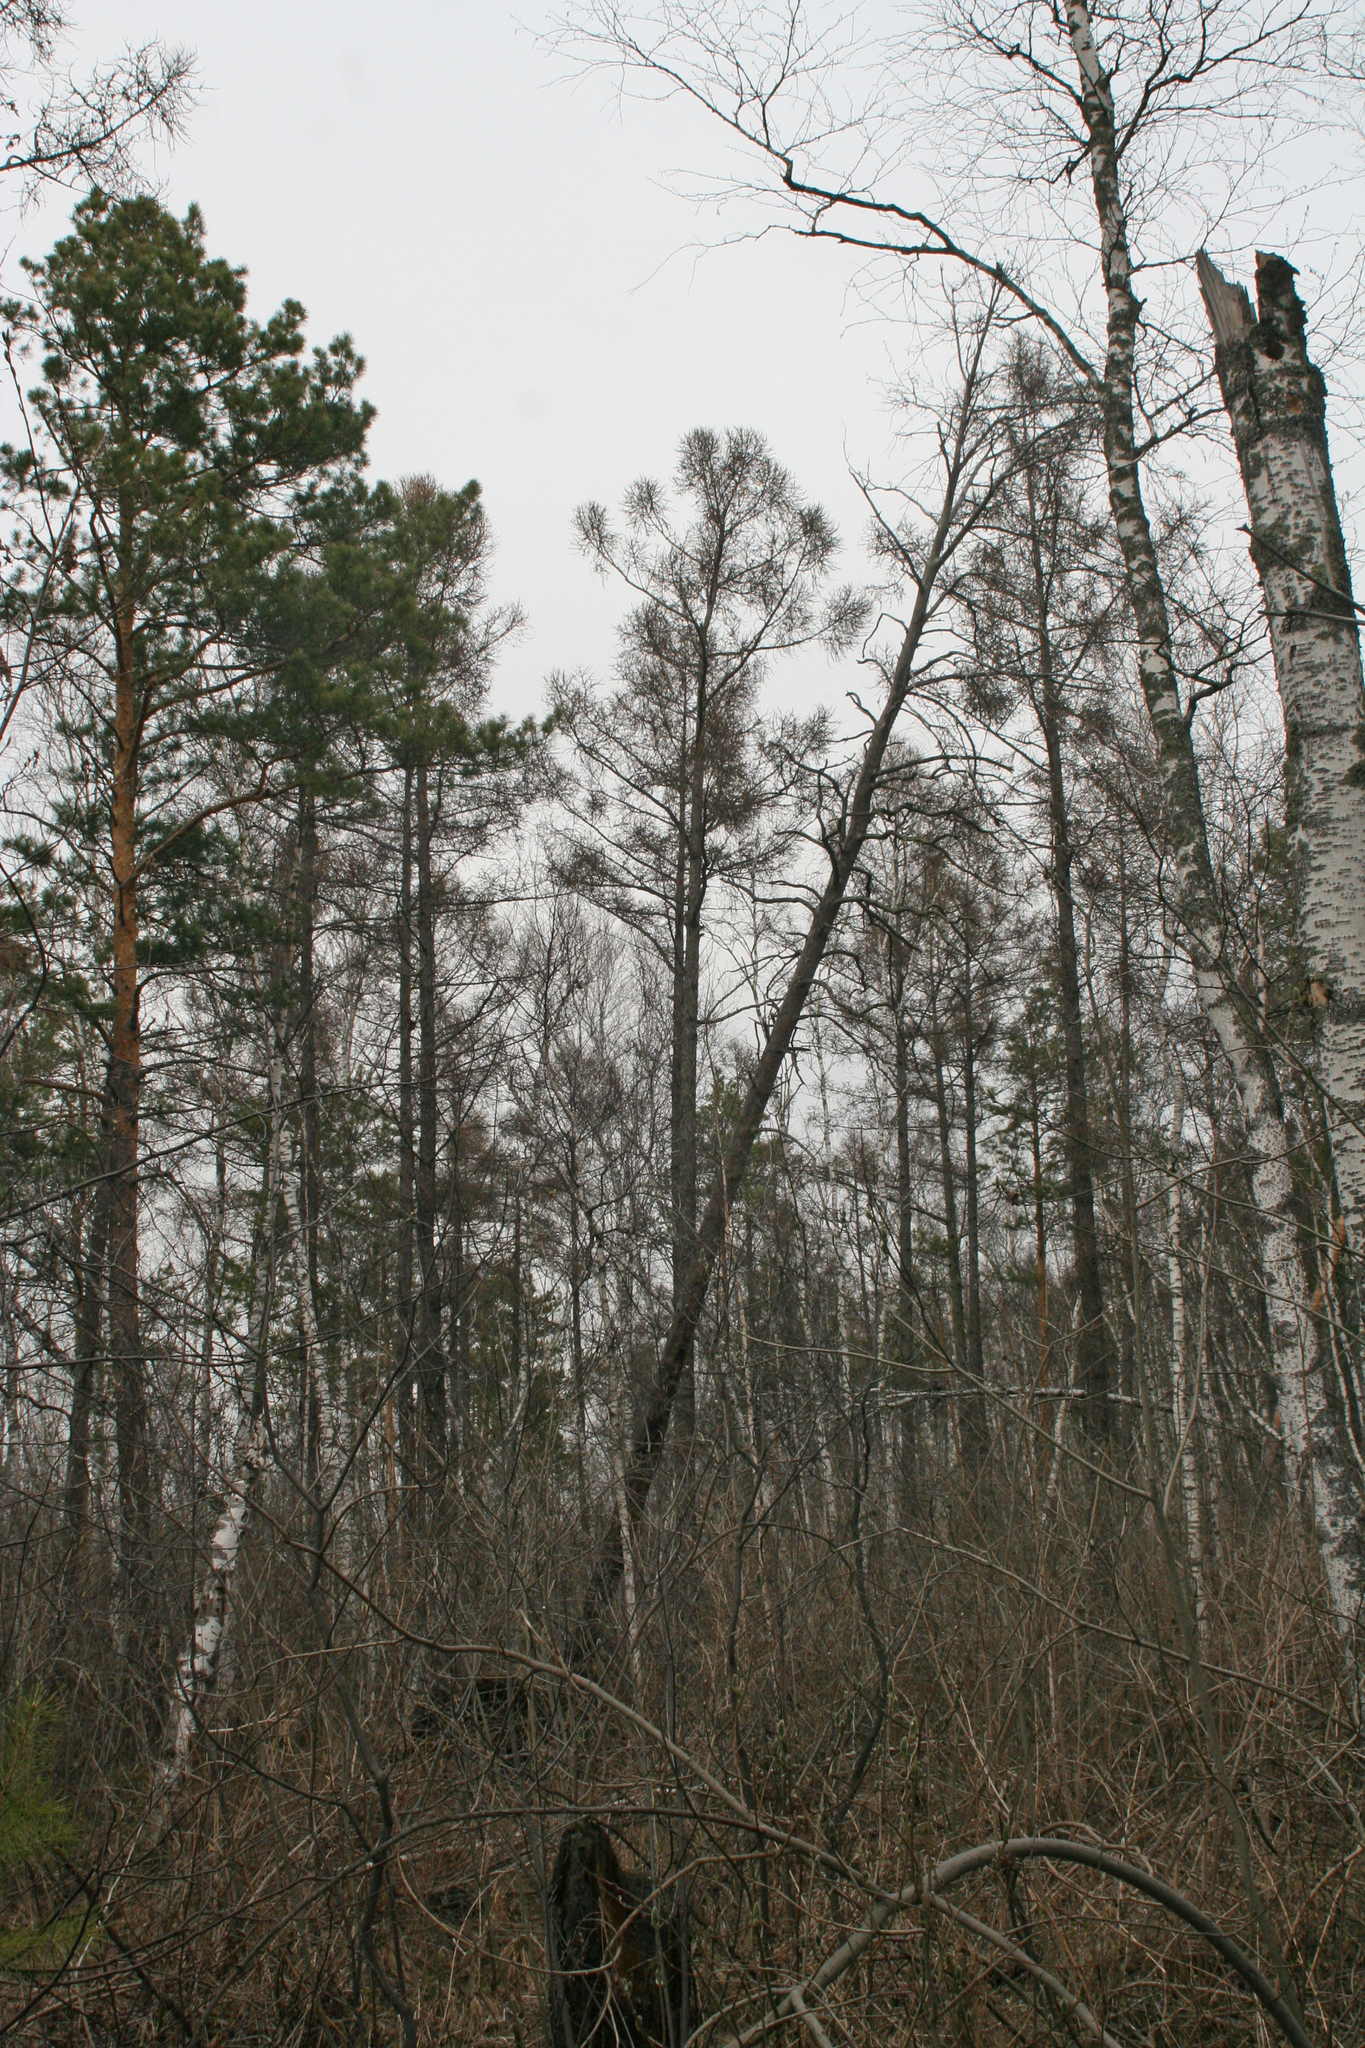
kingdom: Plantae
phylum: Tracheophyta
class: Pinopsida
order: Pinales
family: Pinaceae
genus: Larix
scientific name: Larix sibirica
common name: Siberian larch
